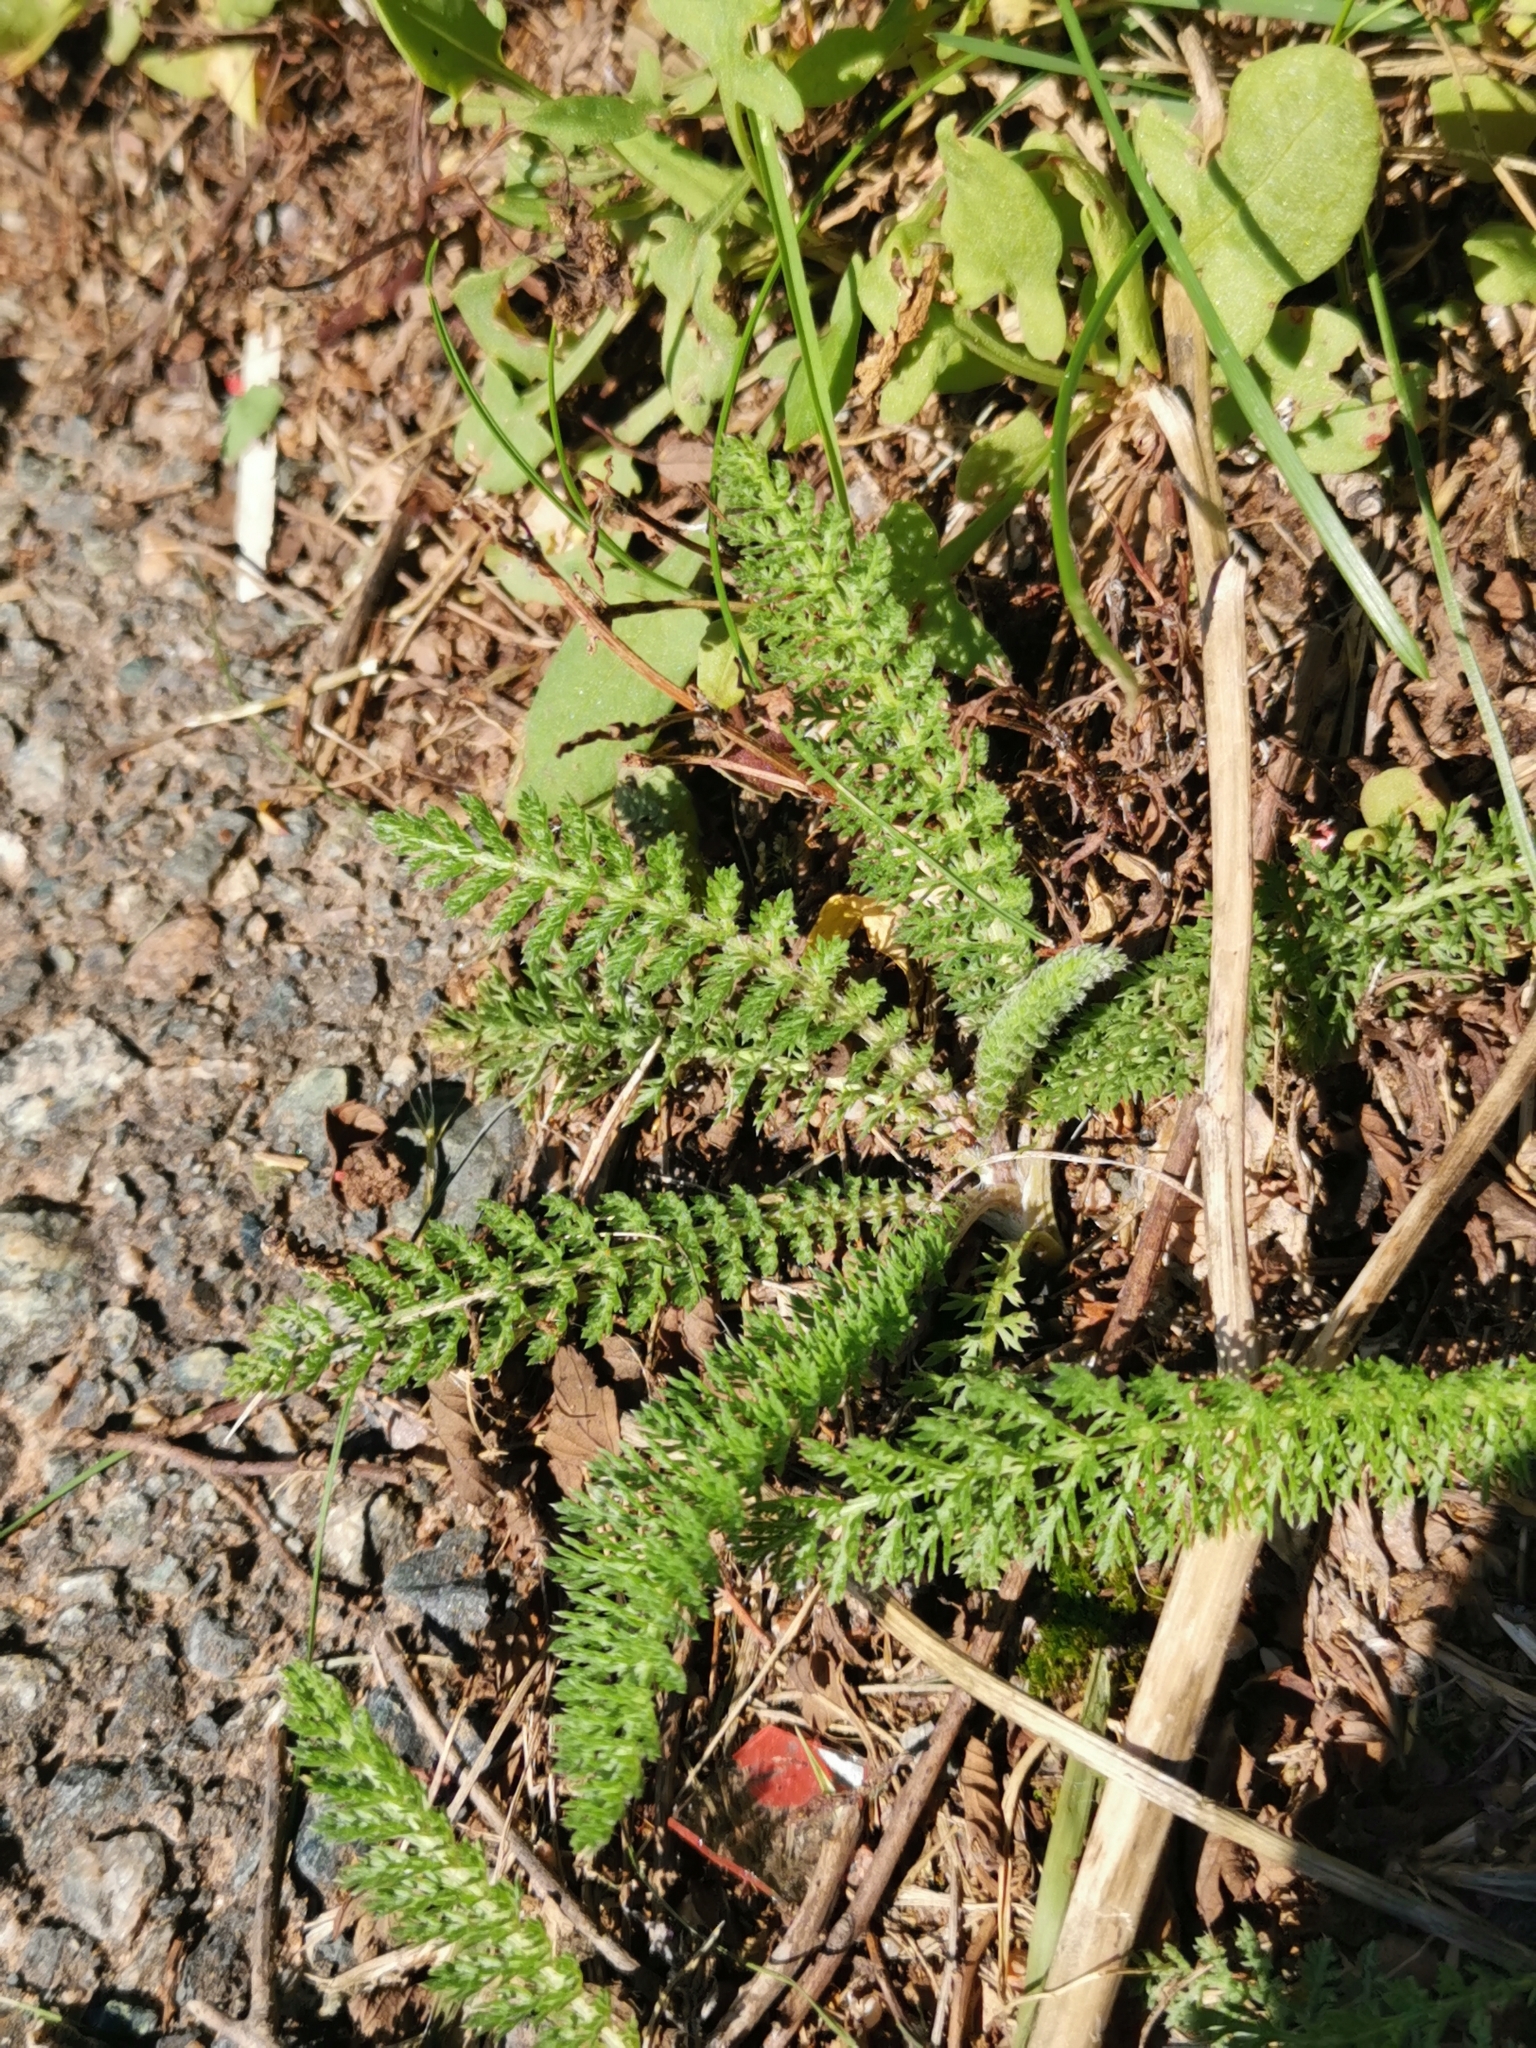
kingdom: Plantae
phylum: Tracheophyta
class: Magnoliopsida
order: Asterales
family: Asteraceae
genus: Achillea
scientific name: Achillea millefolium
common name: Yarrow
